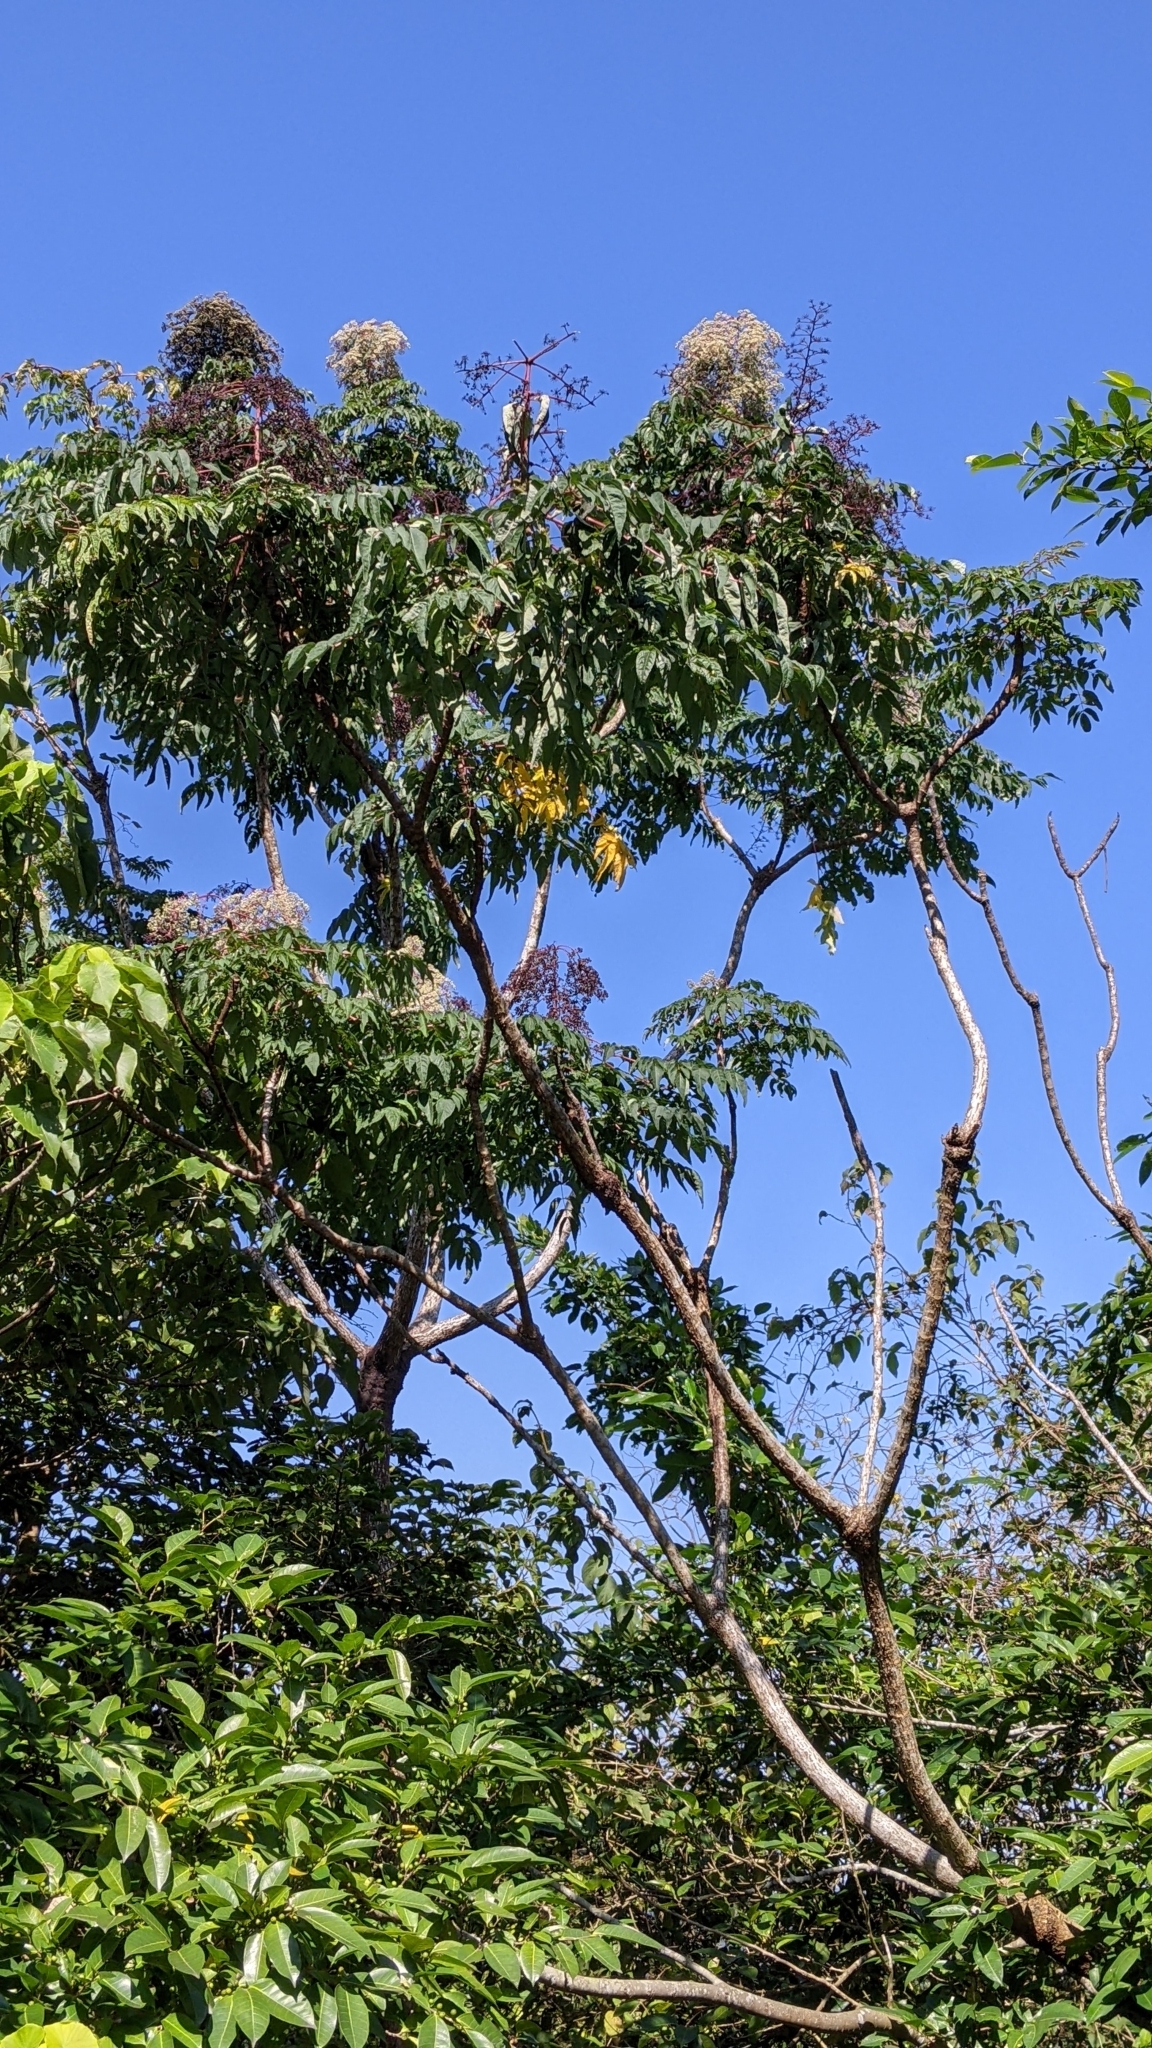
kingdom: Plantae
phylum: Tracheophyta
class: Magnoliopsida
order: Apiales
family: Araliaceae
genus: Aralia
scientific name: Aralia bipinnata
